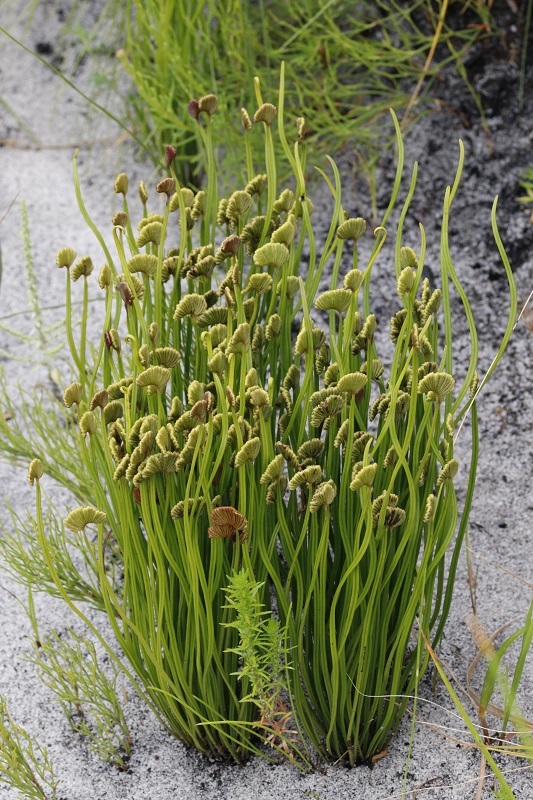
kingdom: Plantae
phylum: Tracheophyta
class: Polypodiopsida
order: Schizaeales
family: Schizaeaceae
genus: Schizaea
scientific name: Schizaea pectinata
